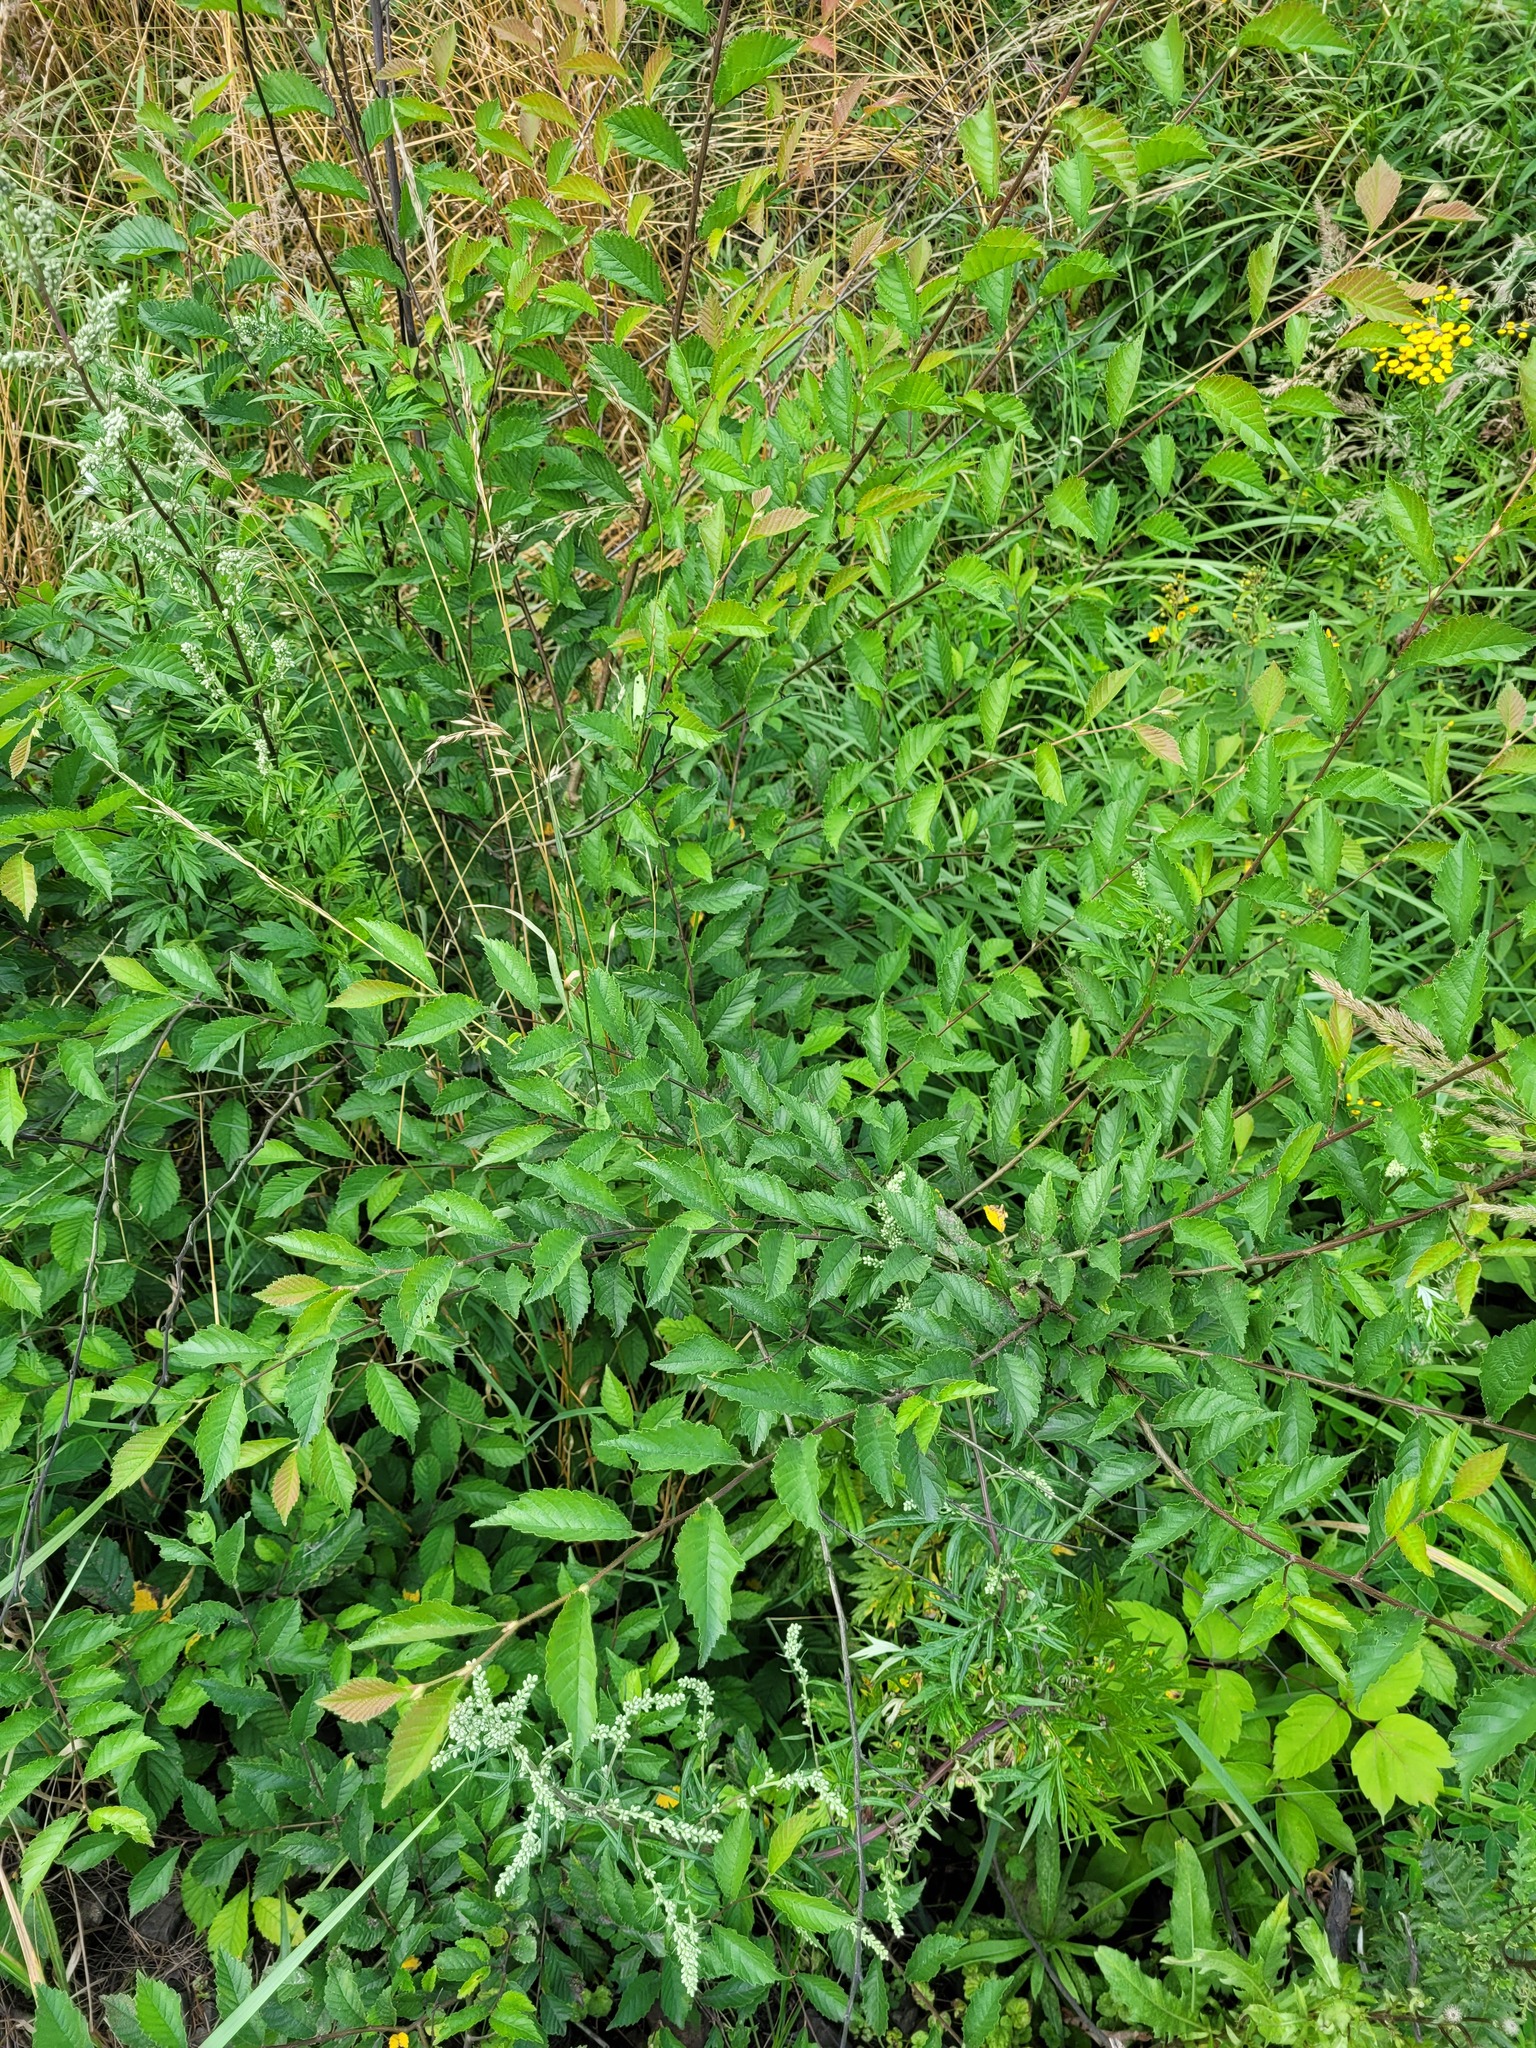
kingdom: Plantae
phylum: Tracheophyta
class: Magnoliopsida
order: Rosales
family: Ulmaceae
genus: Ulmus
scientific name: Ulmus pumila
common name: Siberian elm
